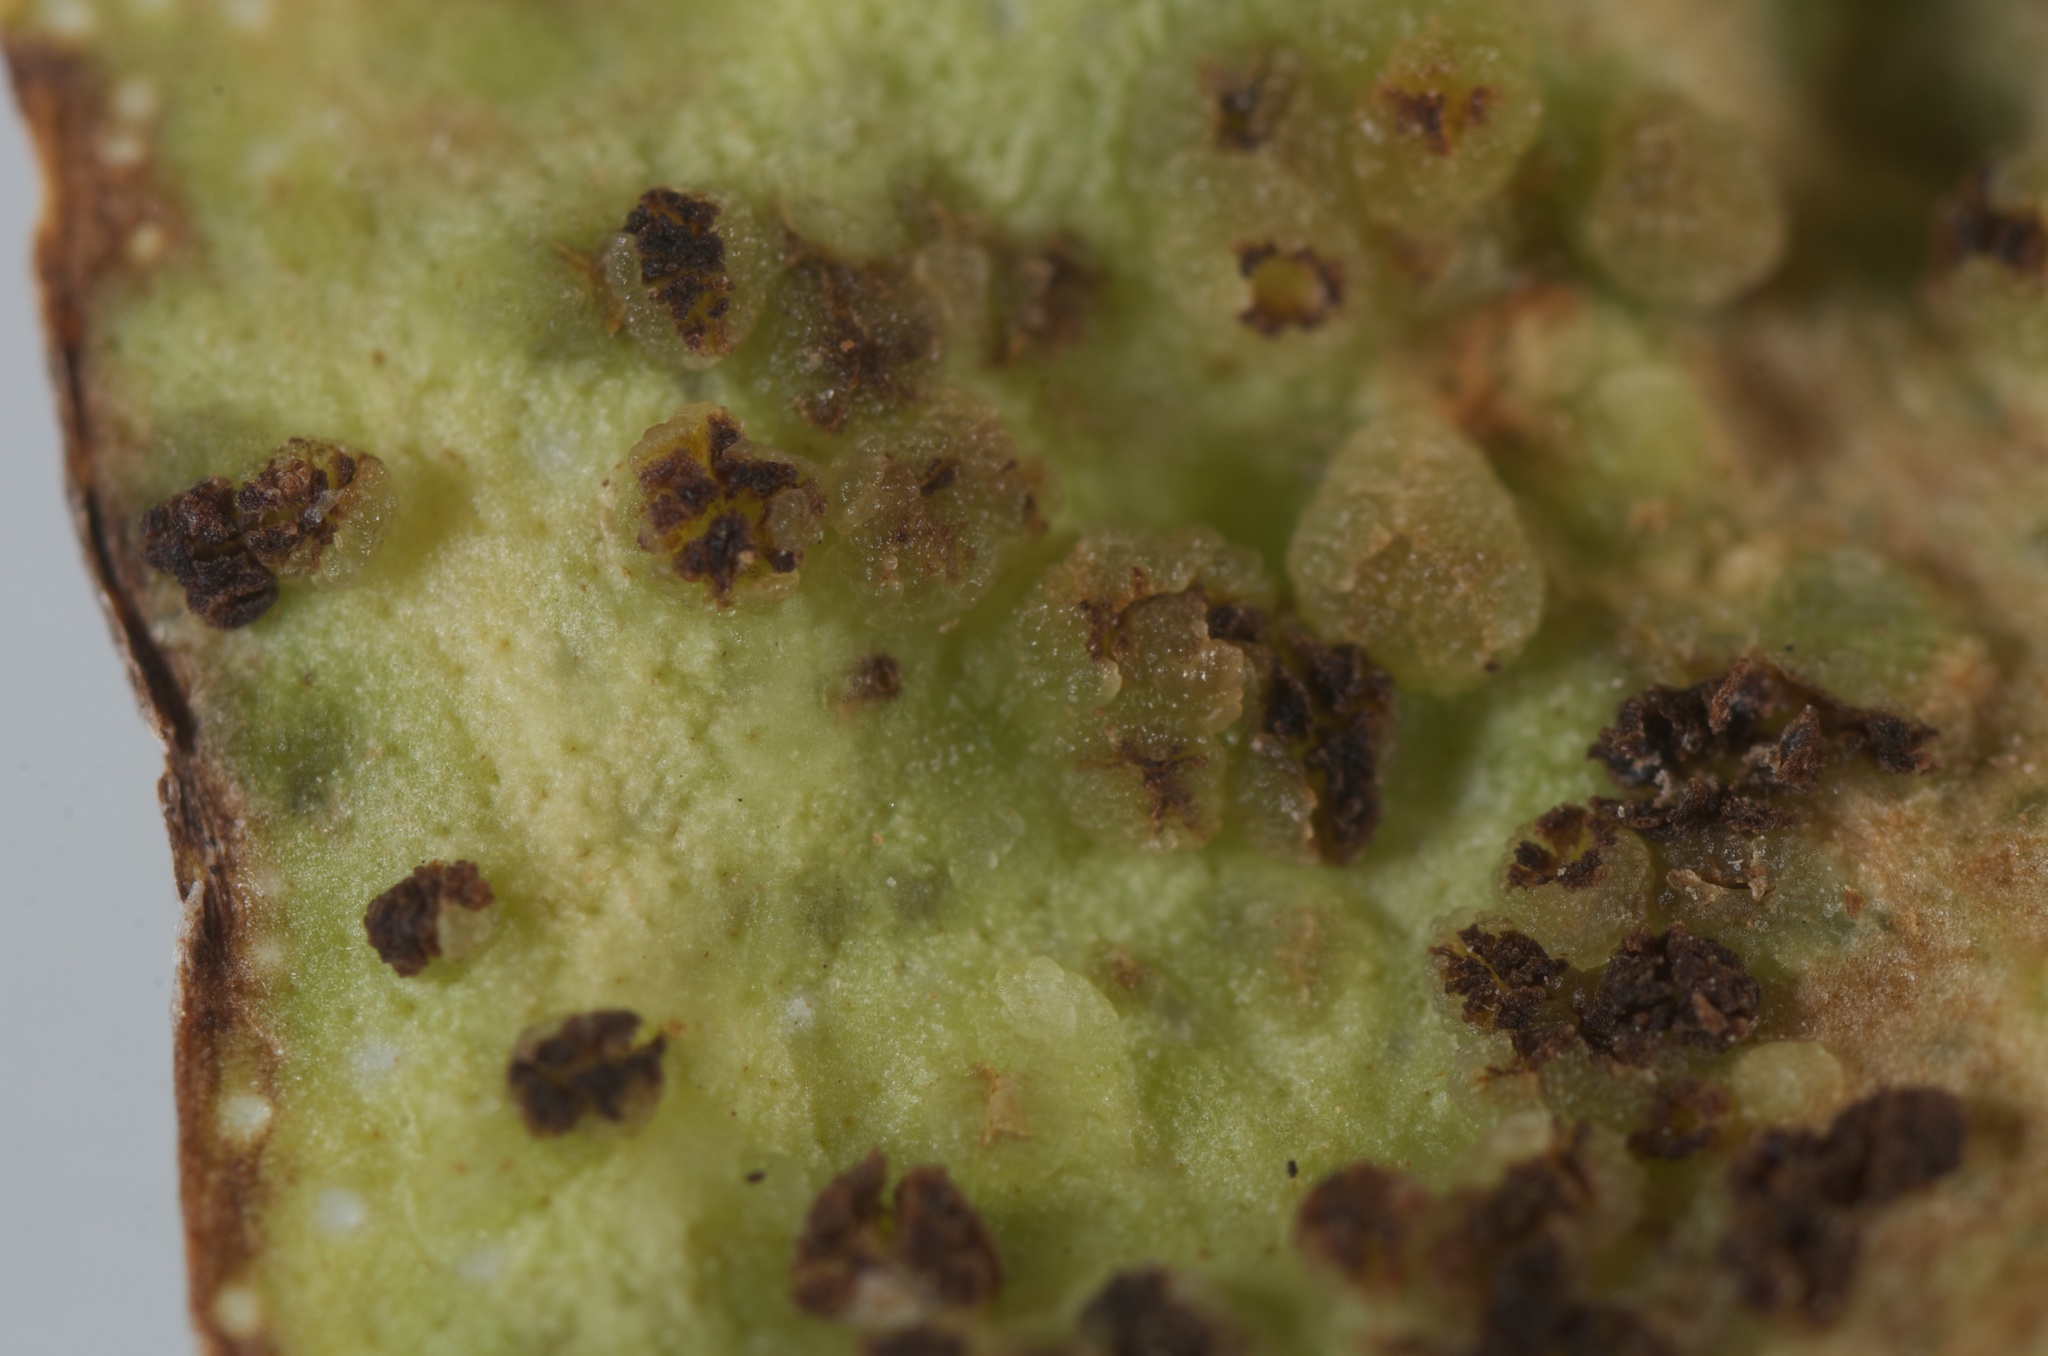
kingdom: Animalia
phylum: Arthropoda
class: Arachnida
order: Trombidiformes
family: Eriophyidae
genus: Aceria
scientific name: Aceria healyi
